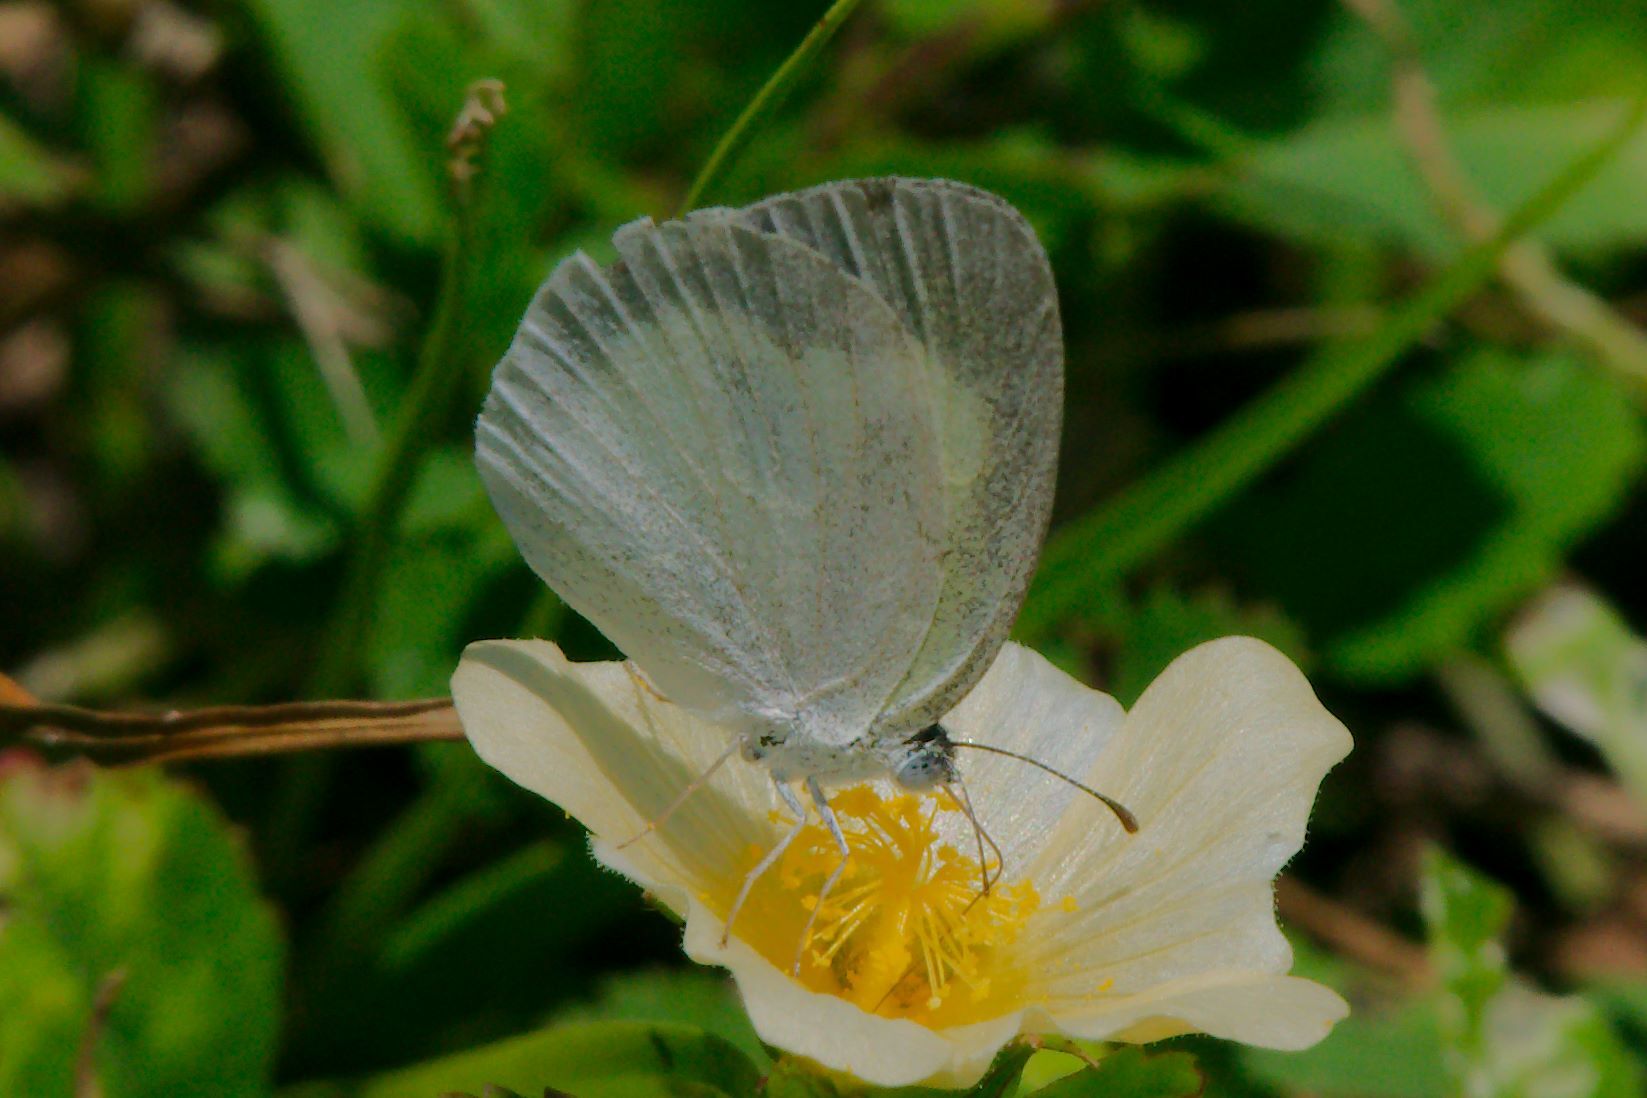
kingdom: Animalia
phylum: Arthropoda
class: Insecta
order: Lepidoptera
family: Pieridae
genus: Eurema
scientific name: Eurema daira
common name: Barred sulphur
